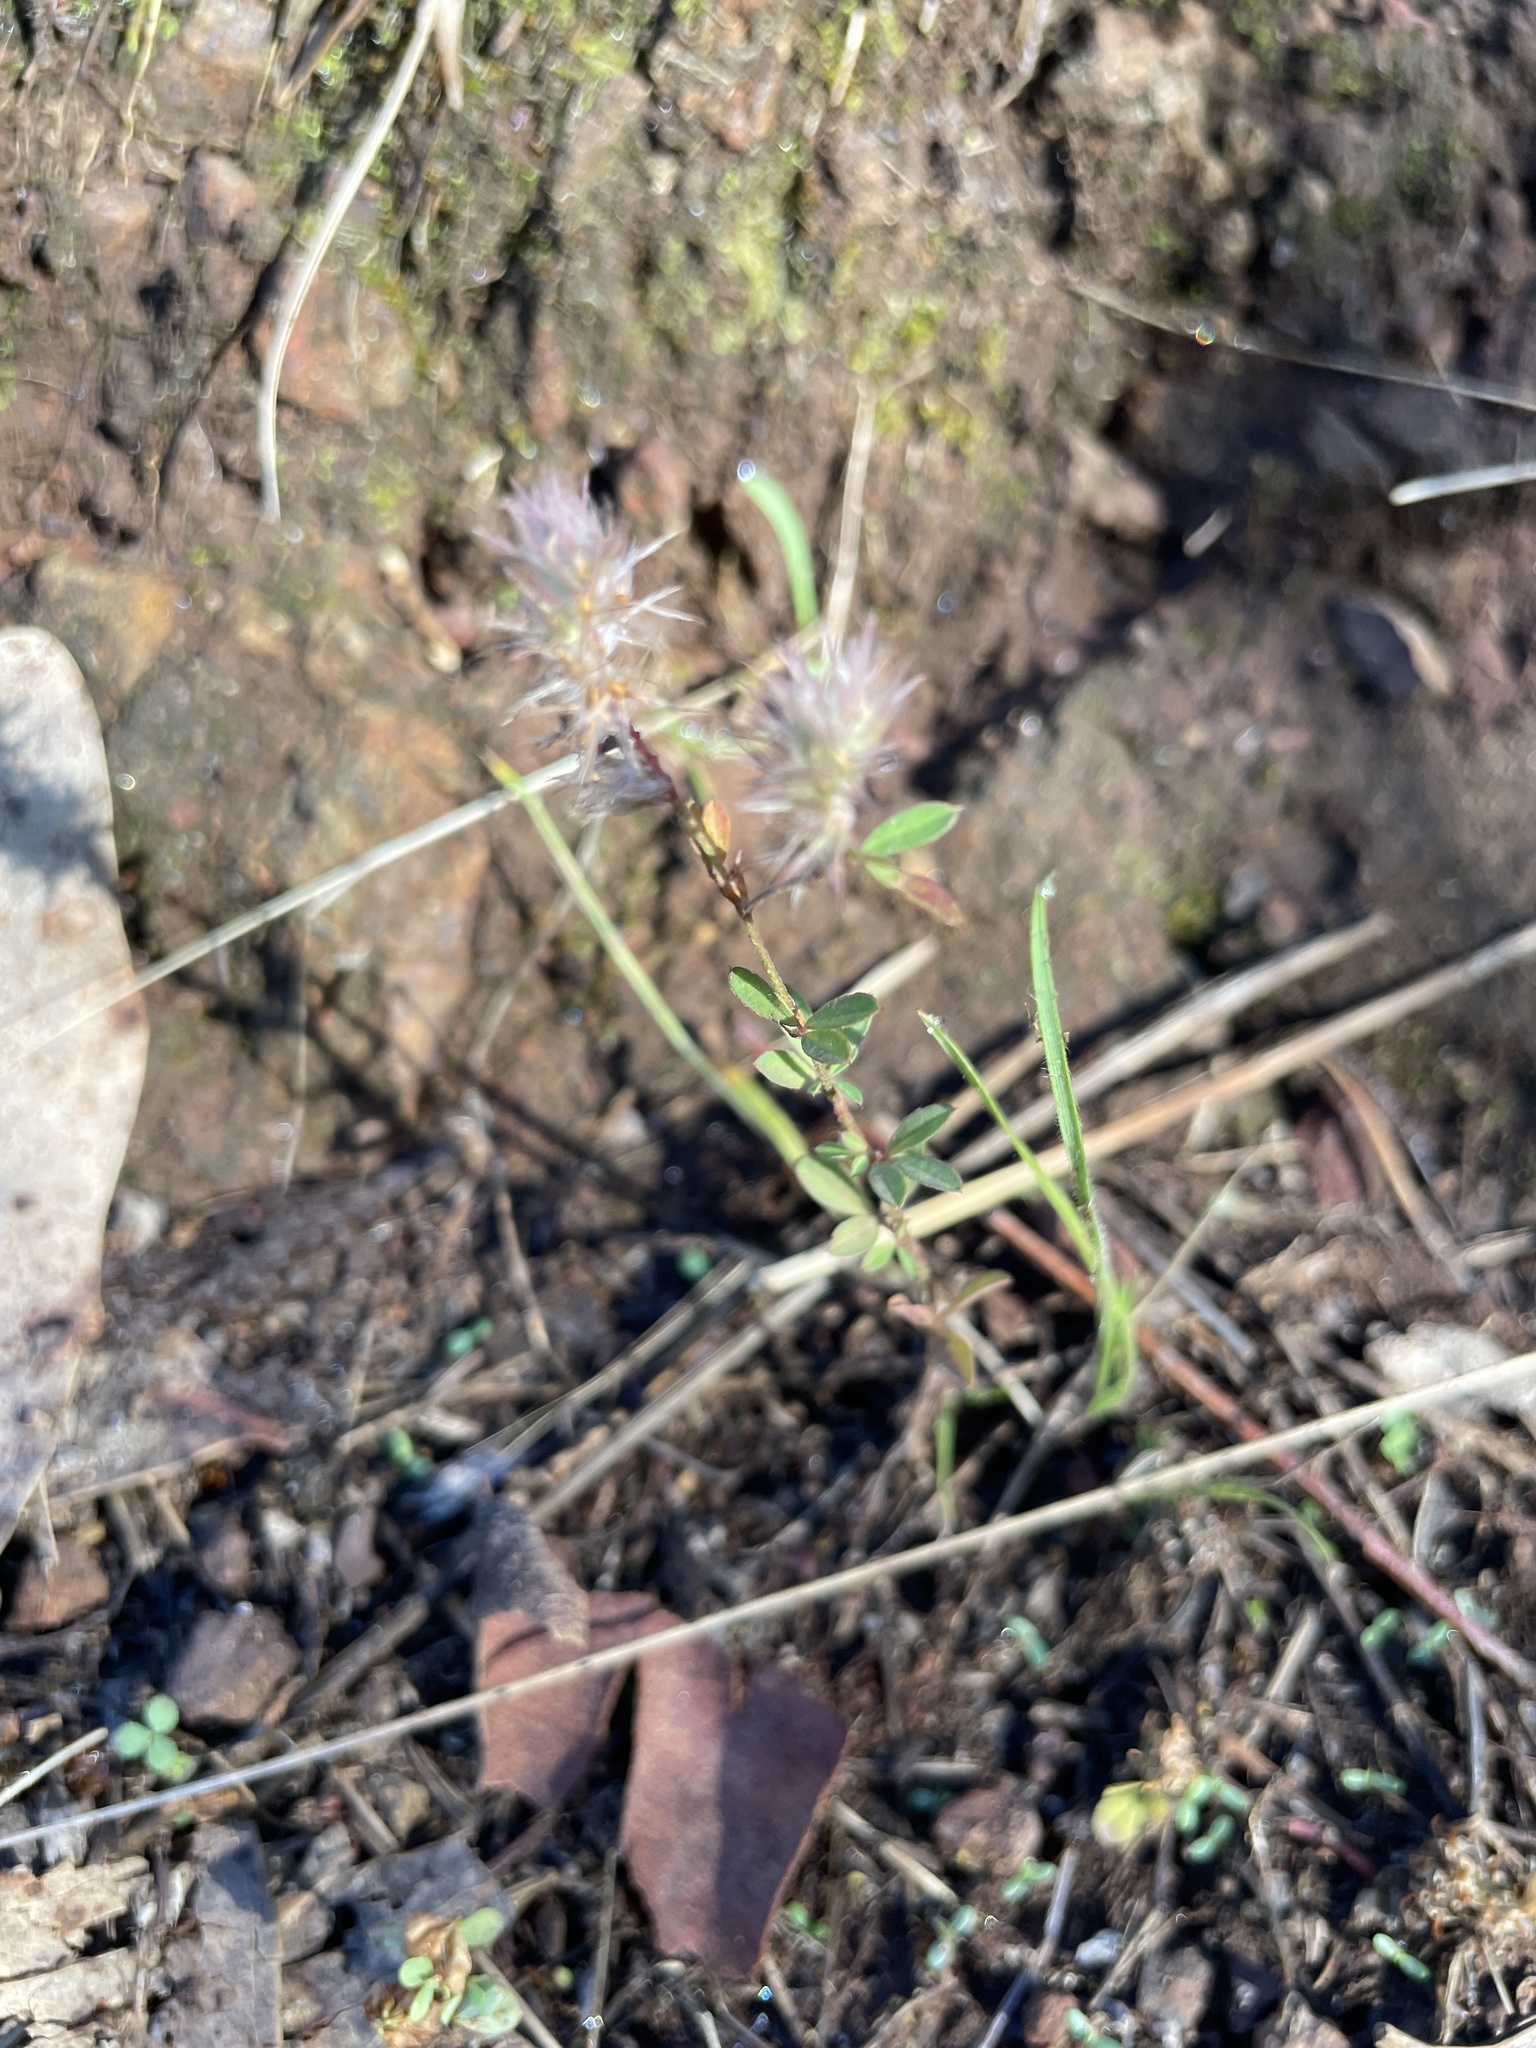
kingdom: Plantae
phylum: Tracheophyta
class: Magnoliopsida
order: Fabales
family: Fabaceae
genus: Trifolium
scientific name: Trifolium arvense
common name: Hare's-foot clover
